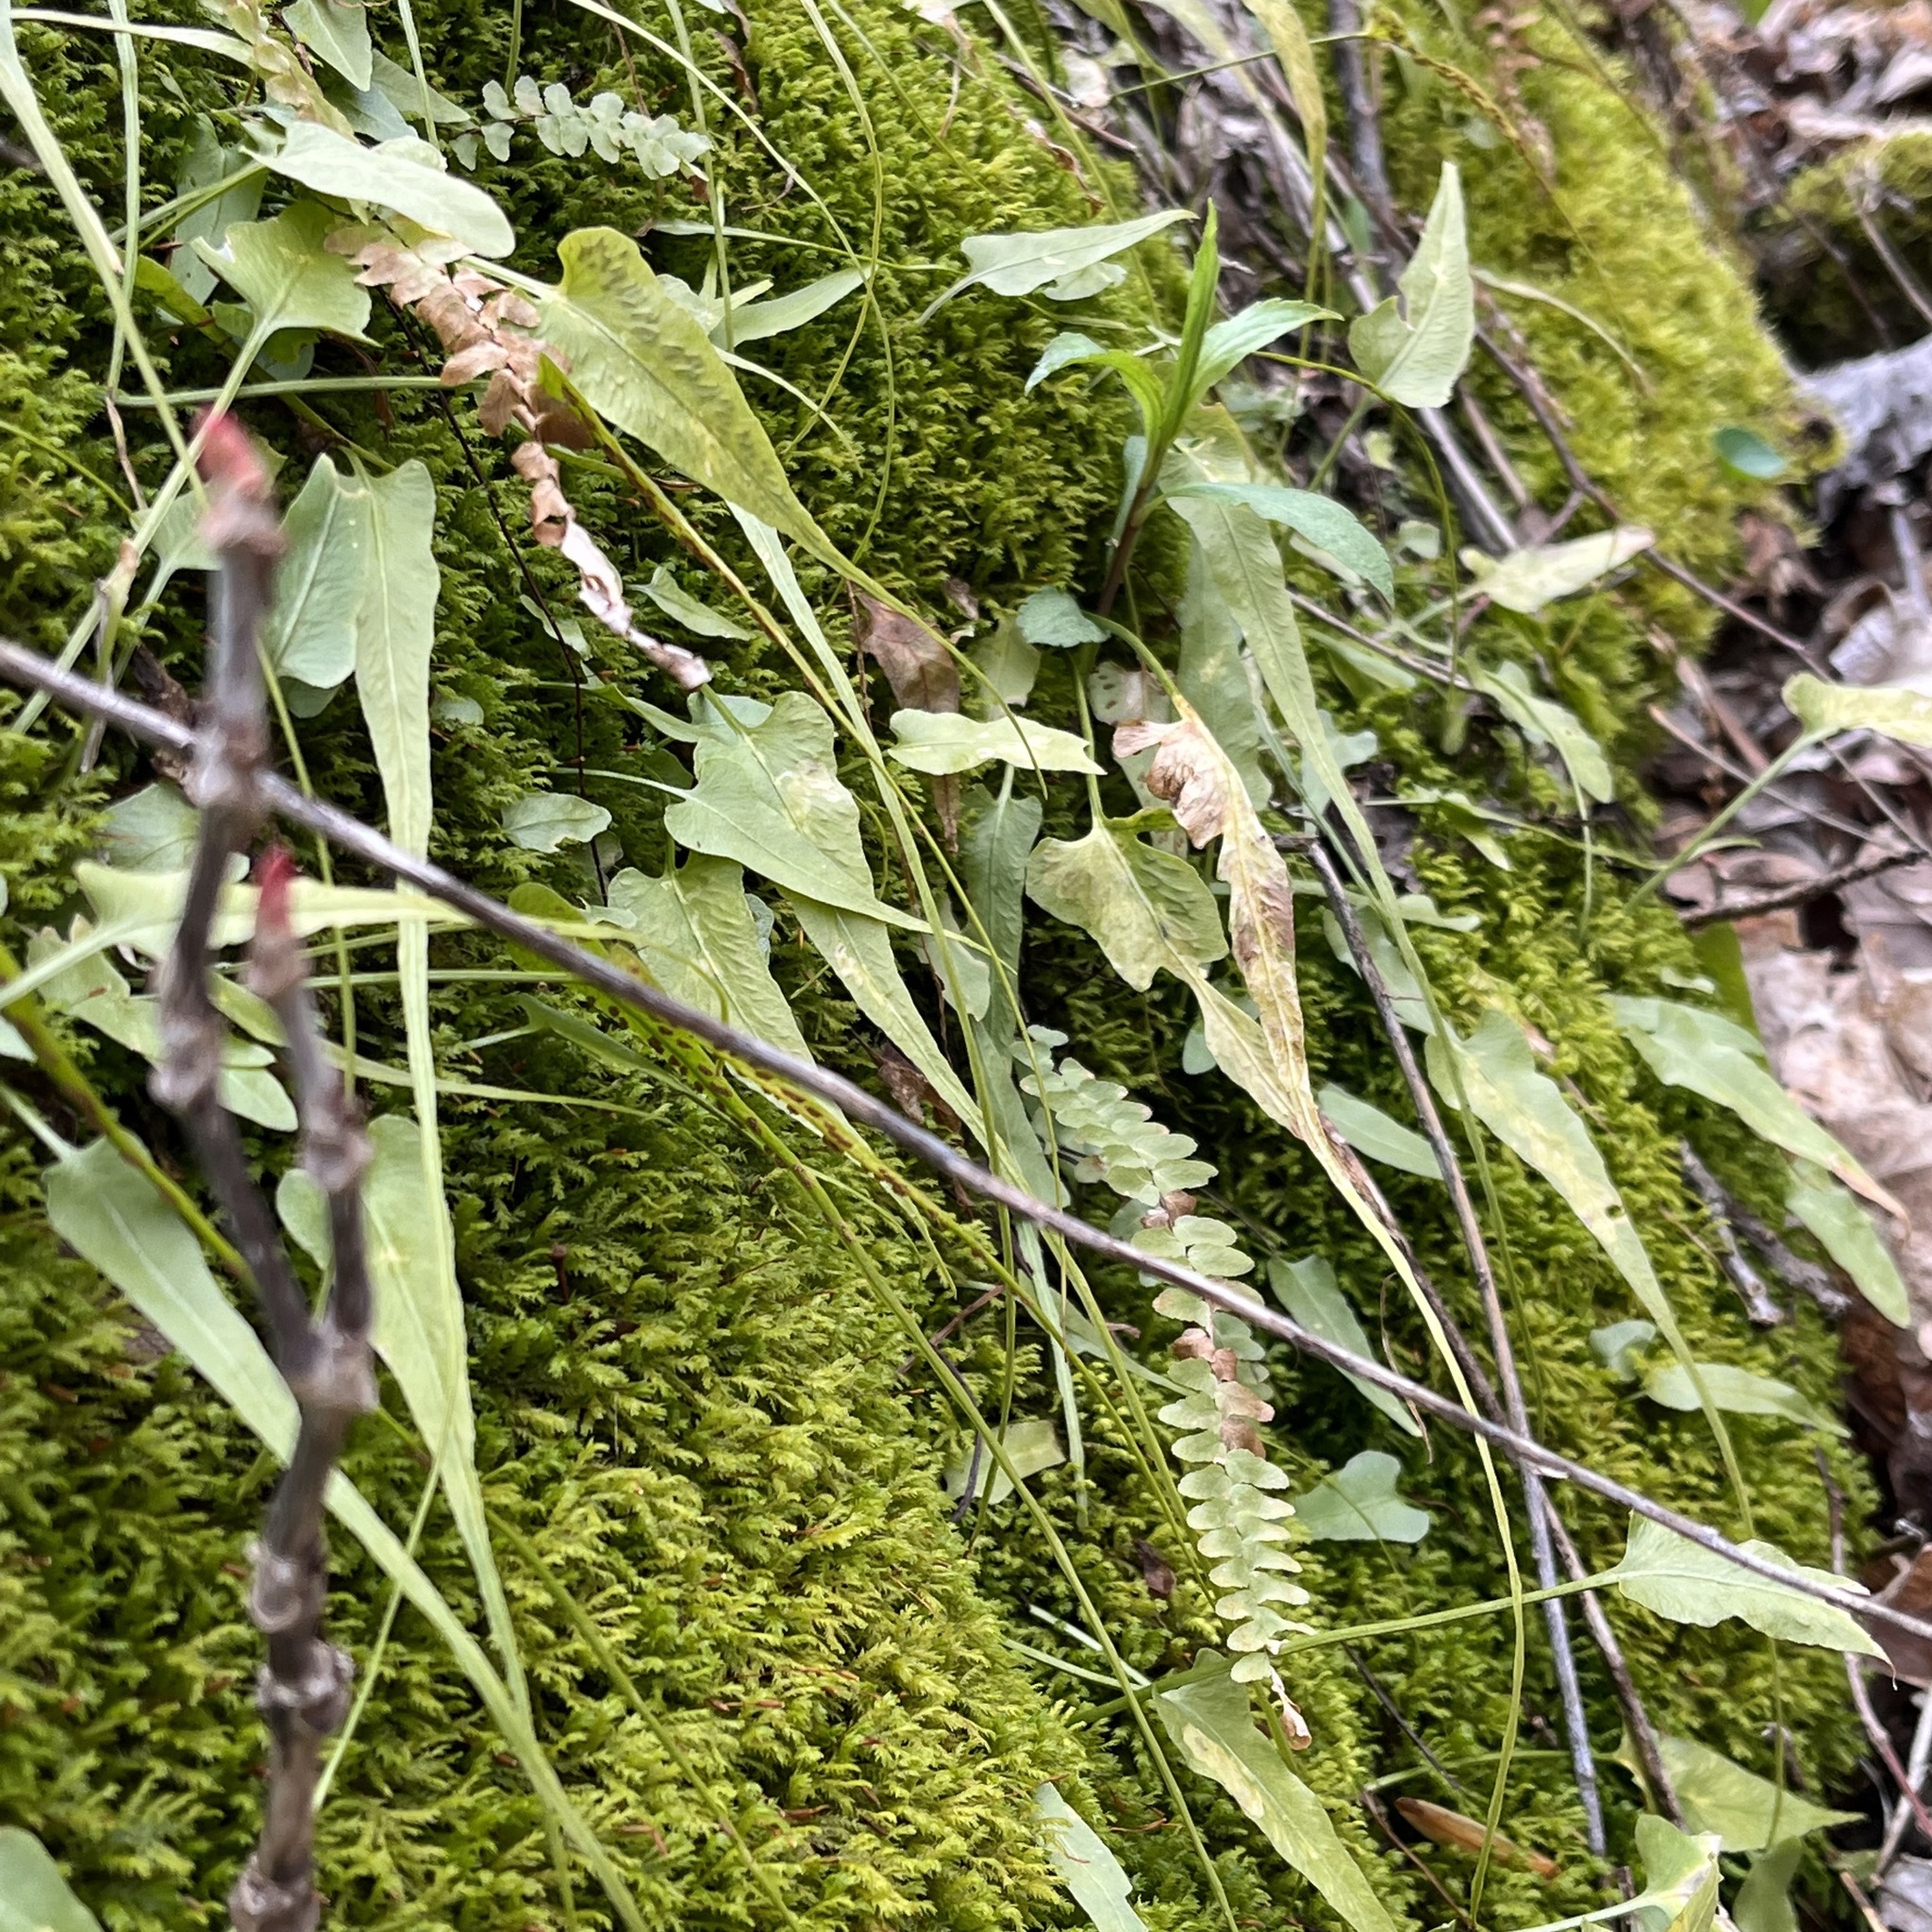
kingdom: Plantae
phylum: Tracheophyta
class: Polypodiopsida
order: Polypodiales
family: Aspleniaceae
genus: Asplenium
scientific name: Asplenium rhizophyllum
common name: Walking fern
